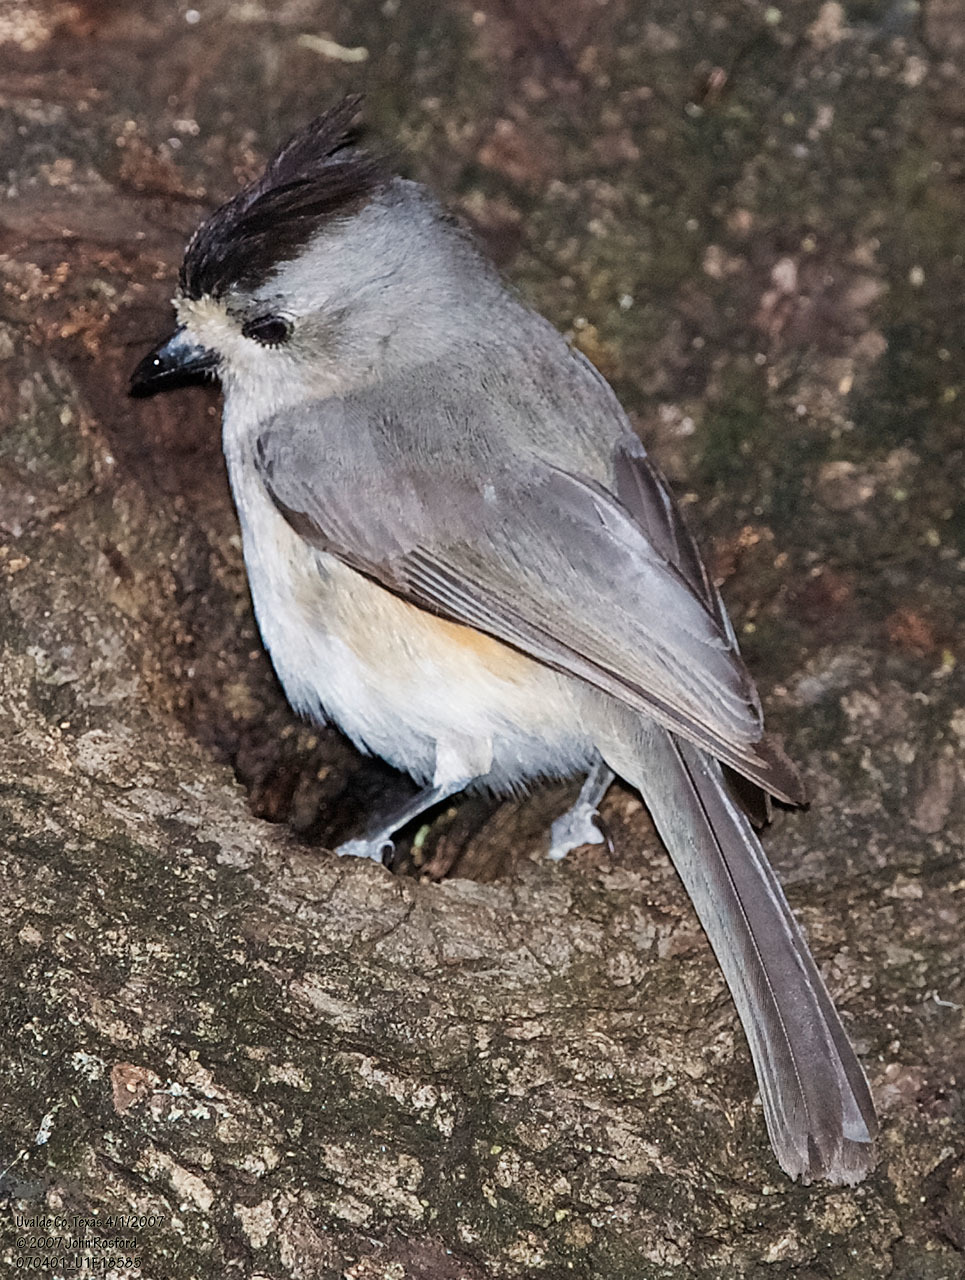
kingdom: Animalia
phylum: Chordata
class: Aves
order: Passeriformes
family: Paridae
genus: Baeolophus
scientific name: Baeolophus atricristatus
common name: Black-crested titmouse
